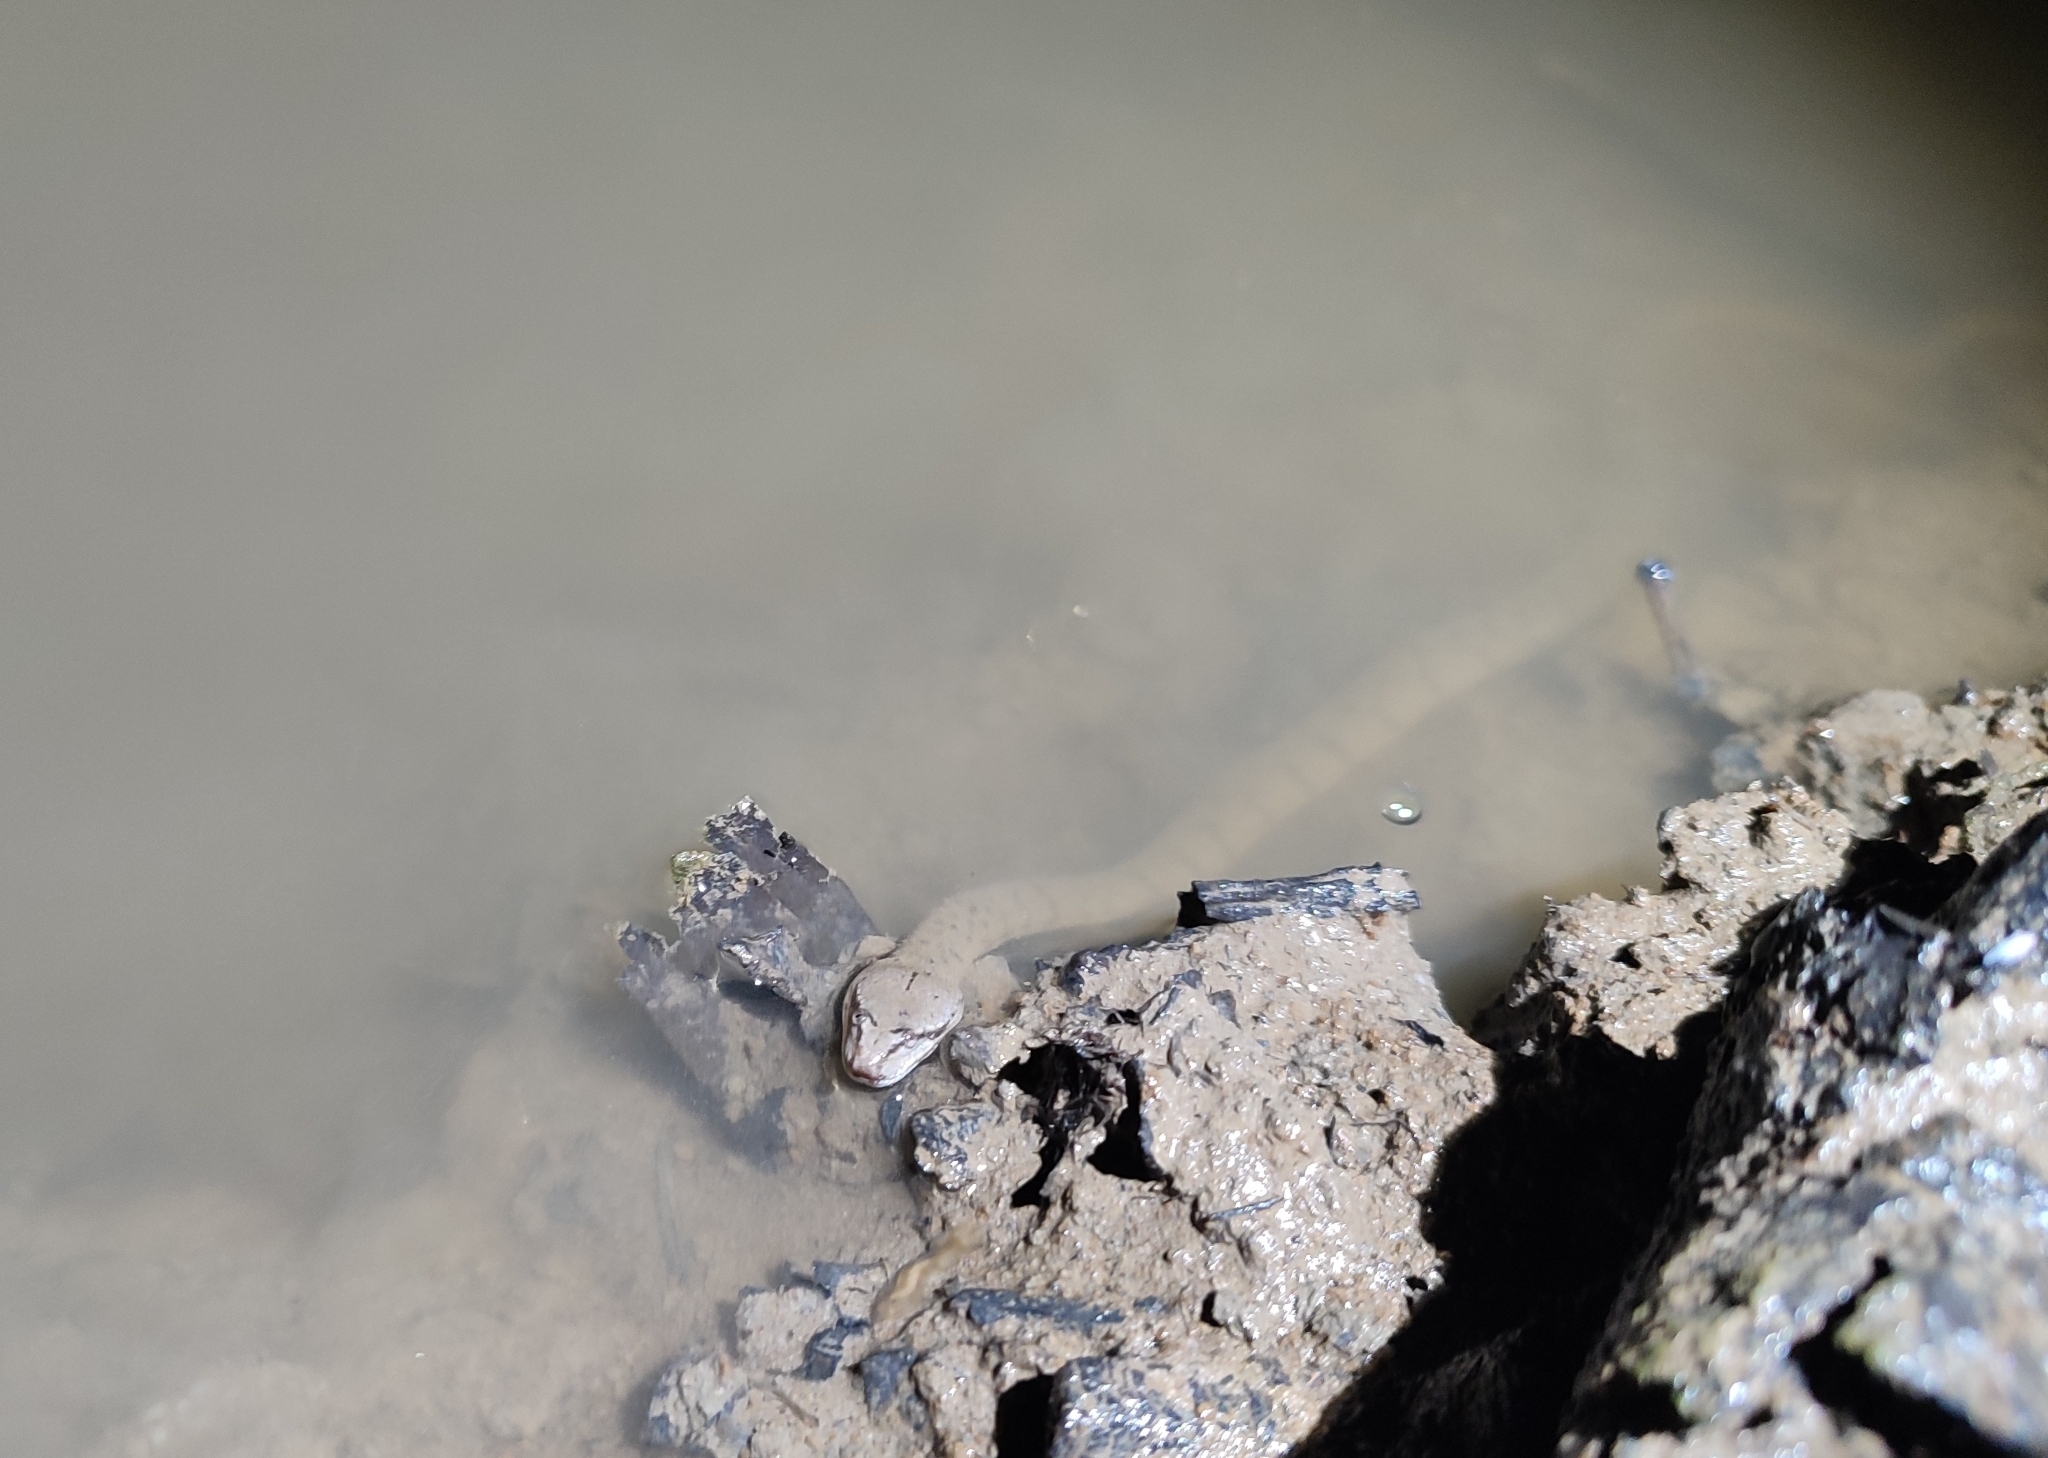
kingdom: Animalia
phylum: Chordata
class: Squamata
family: Homalopsidae
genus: Cerberus
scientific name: Cerberus schneiderii
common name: Southeast asian bockadam
